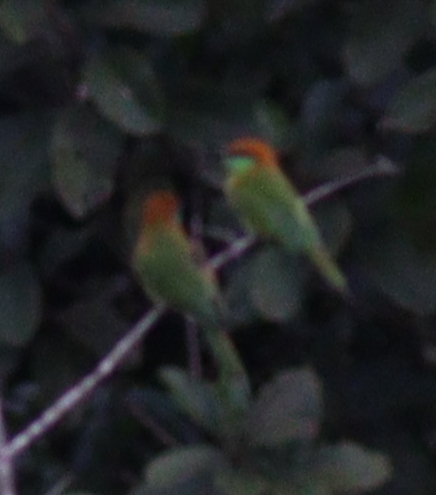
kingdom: Animalia
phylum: Chordata
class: Aves
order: Coraciiformes
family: Meropidae
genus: Merops
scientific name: Merops orientalis
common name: Green bee-eater
